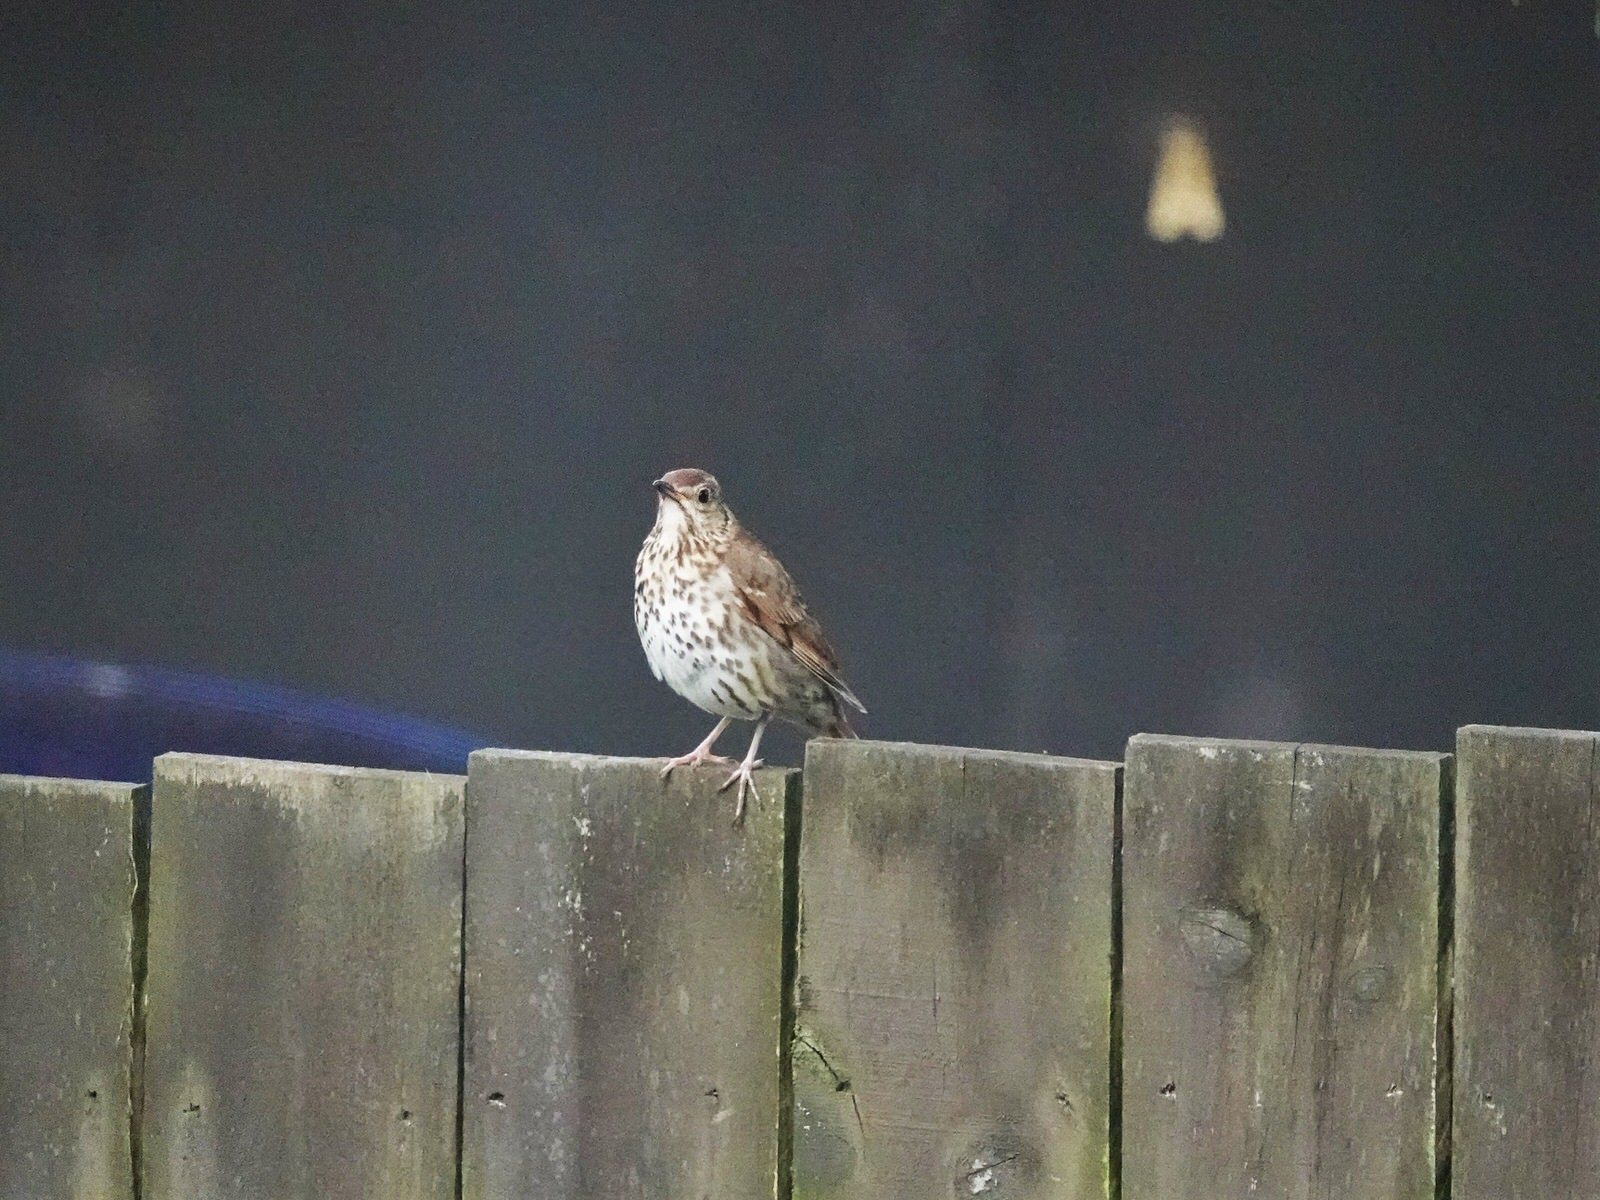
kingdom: Animalia
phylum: Chordata
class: Aves
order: Passeriformes
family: Turdidae
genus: Turdus
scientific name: Turdus philomelos
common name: Song thrush
